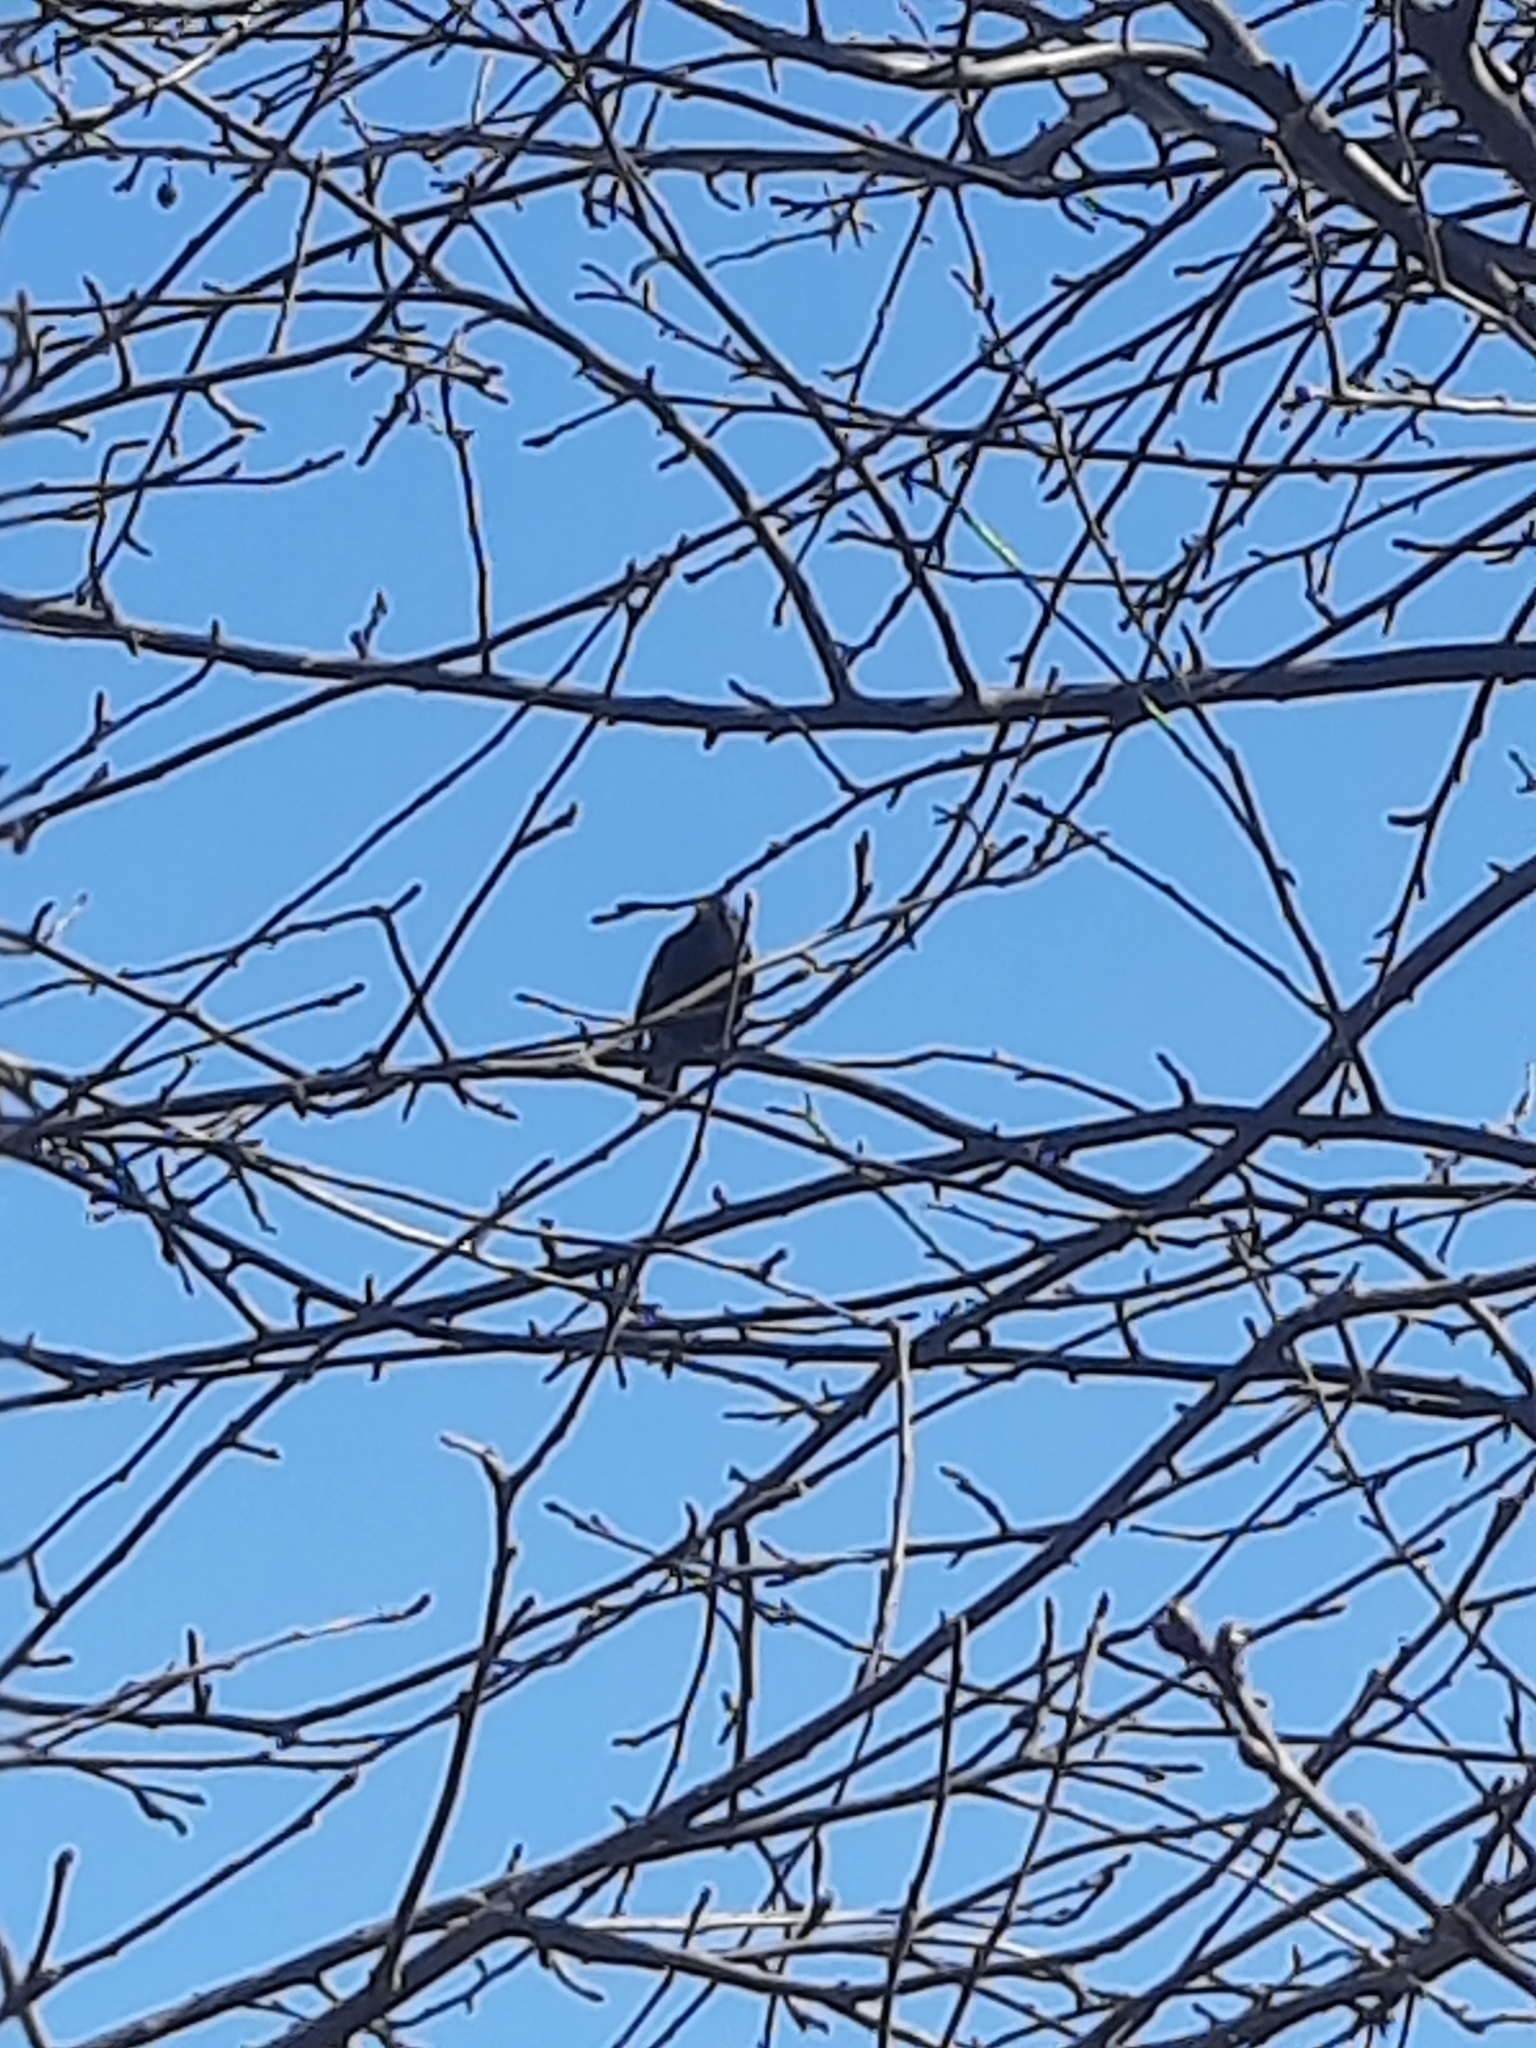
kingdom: Animalia
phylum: Chordata
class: Aves
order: Passeriformes
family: Sturnidae
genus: Sturnus
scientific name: Sturnus vulgaris
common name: Common starling
